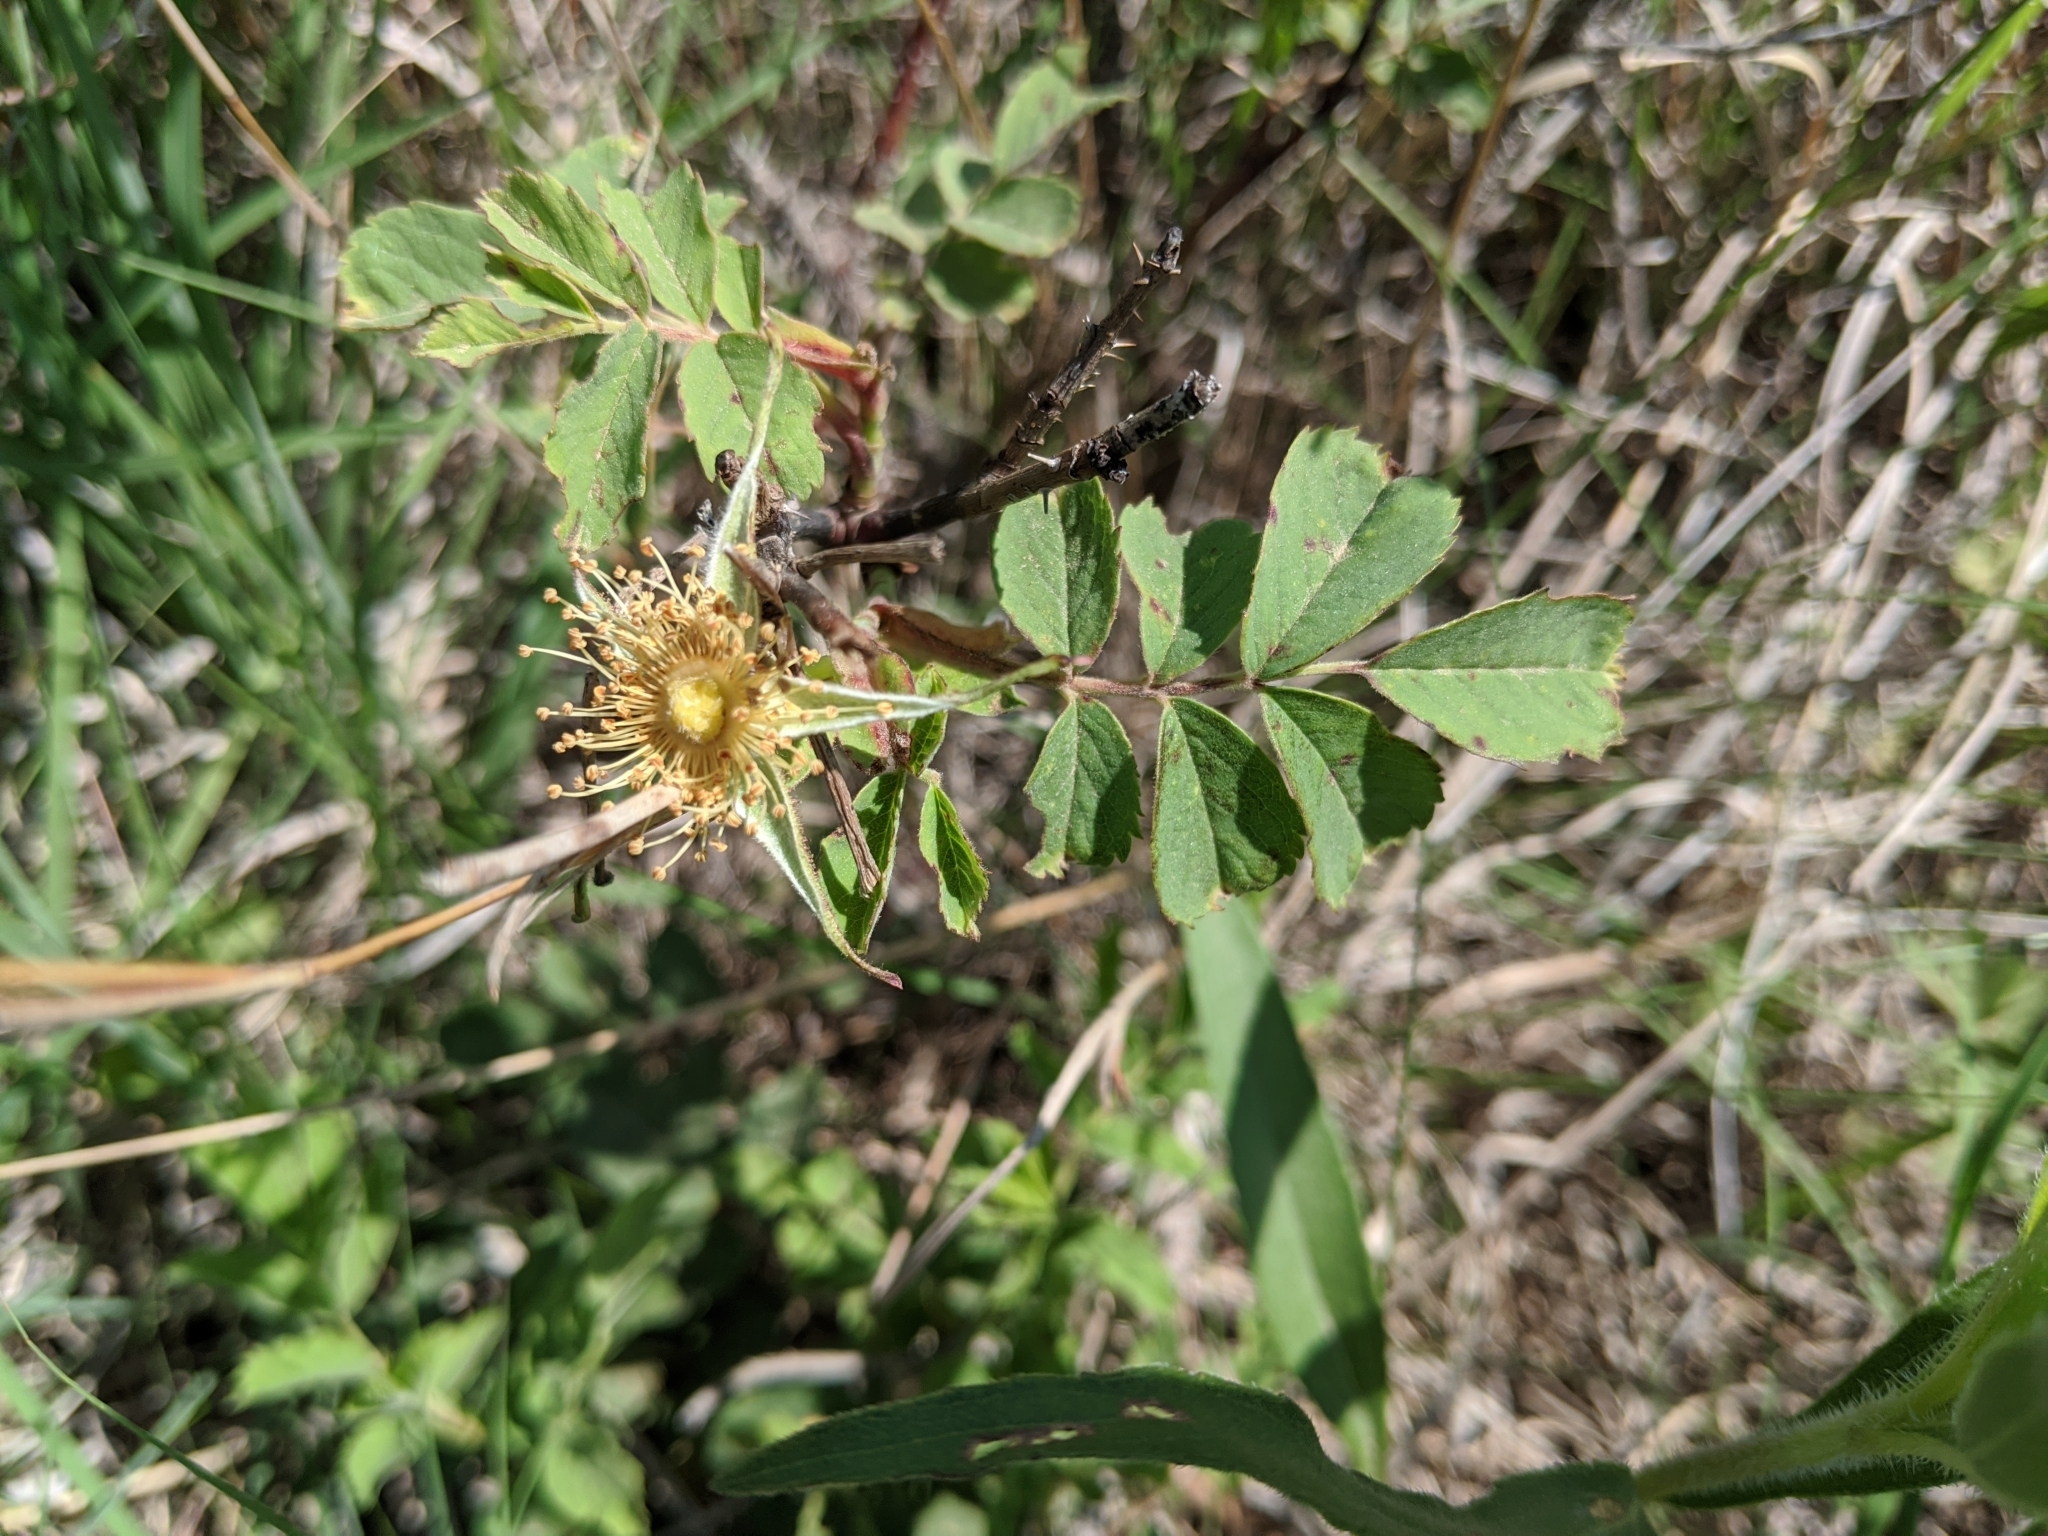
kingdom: Plantae
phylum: Tracheophyta
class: Magnoliopsida
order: Rosales
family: Rosaceae
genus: Rosa
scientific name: Rosa arkansana
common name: Prairie rose
